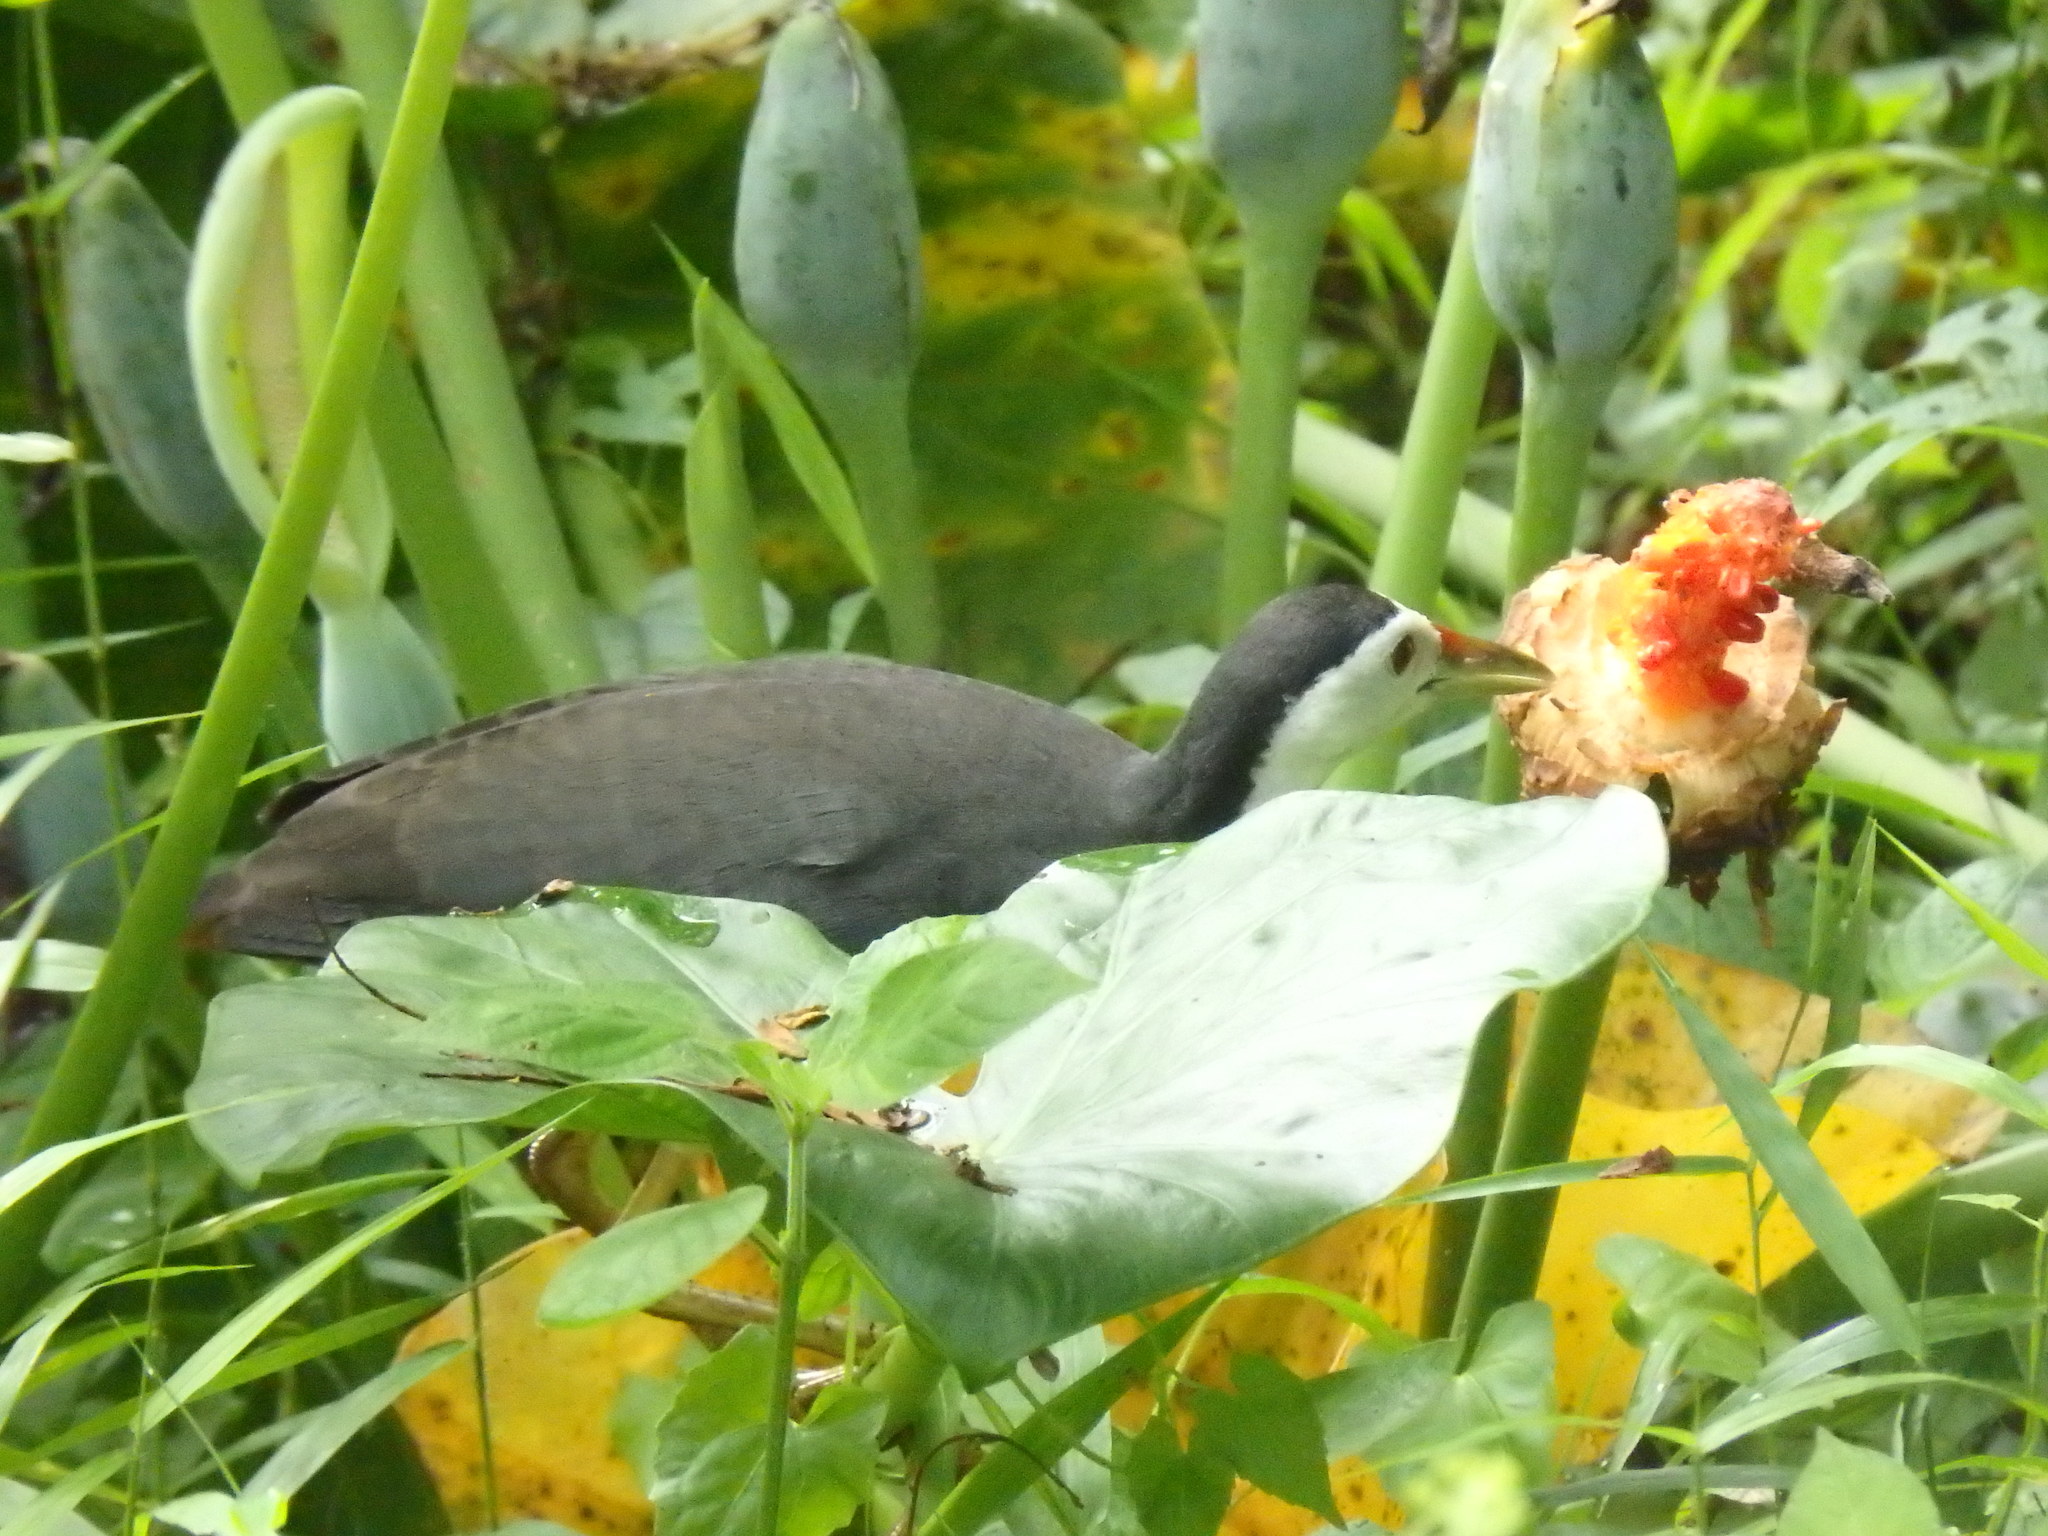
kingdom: Animalia
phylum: Chordata
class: Aves
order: Gruiformes
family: Rallidae
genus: Amaurornis
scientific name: Amaurornis phoenicurus
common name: White-breasted waterhen
